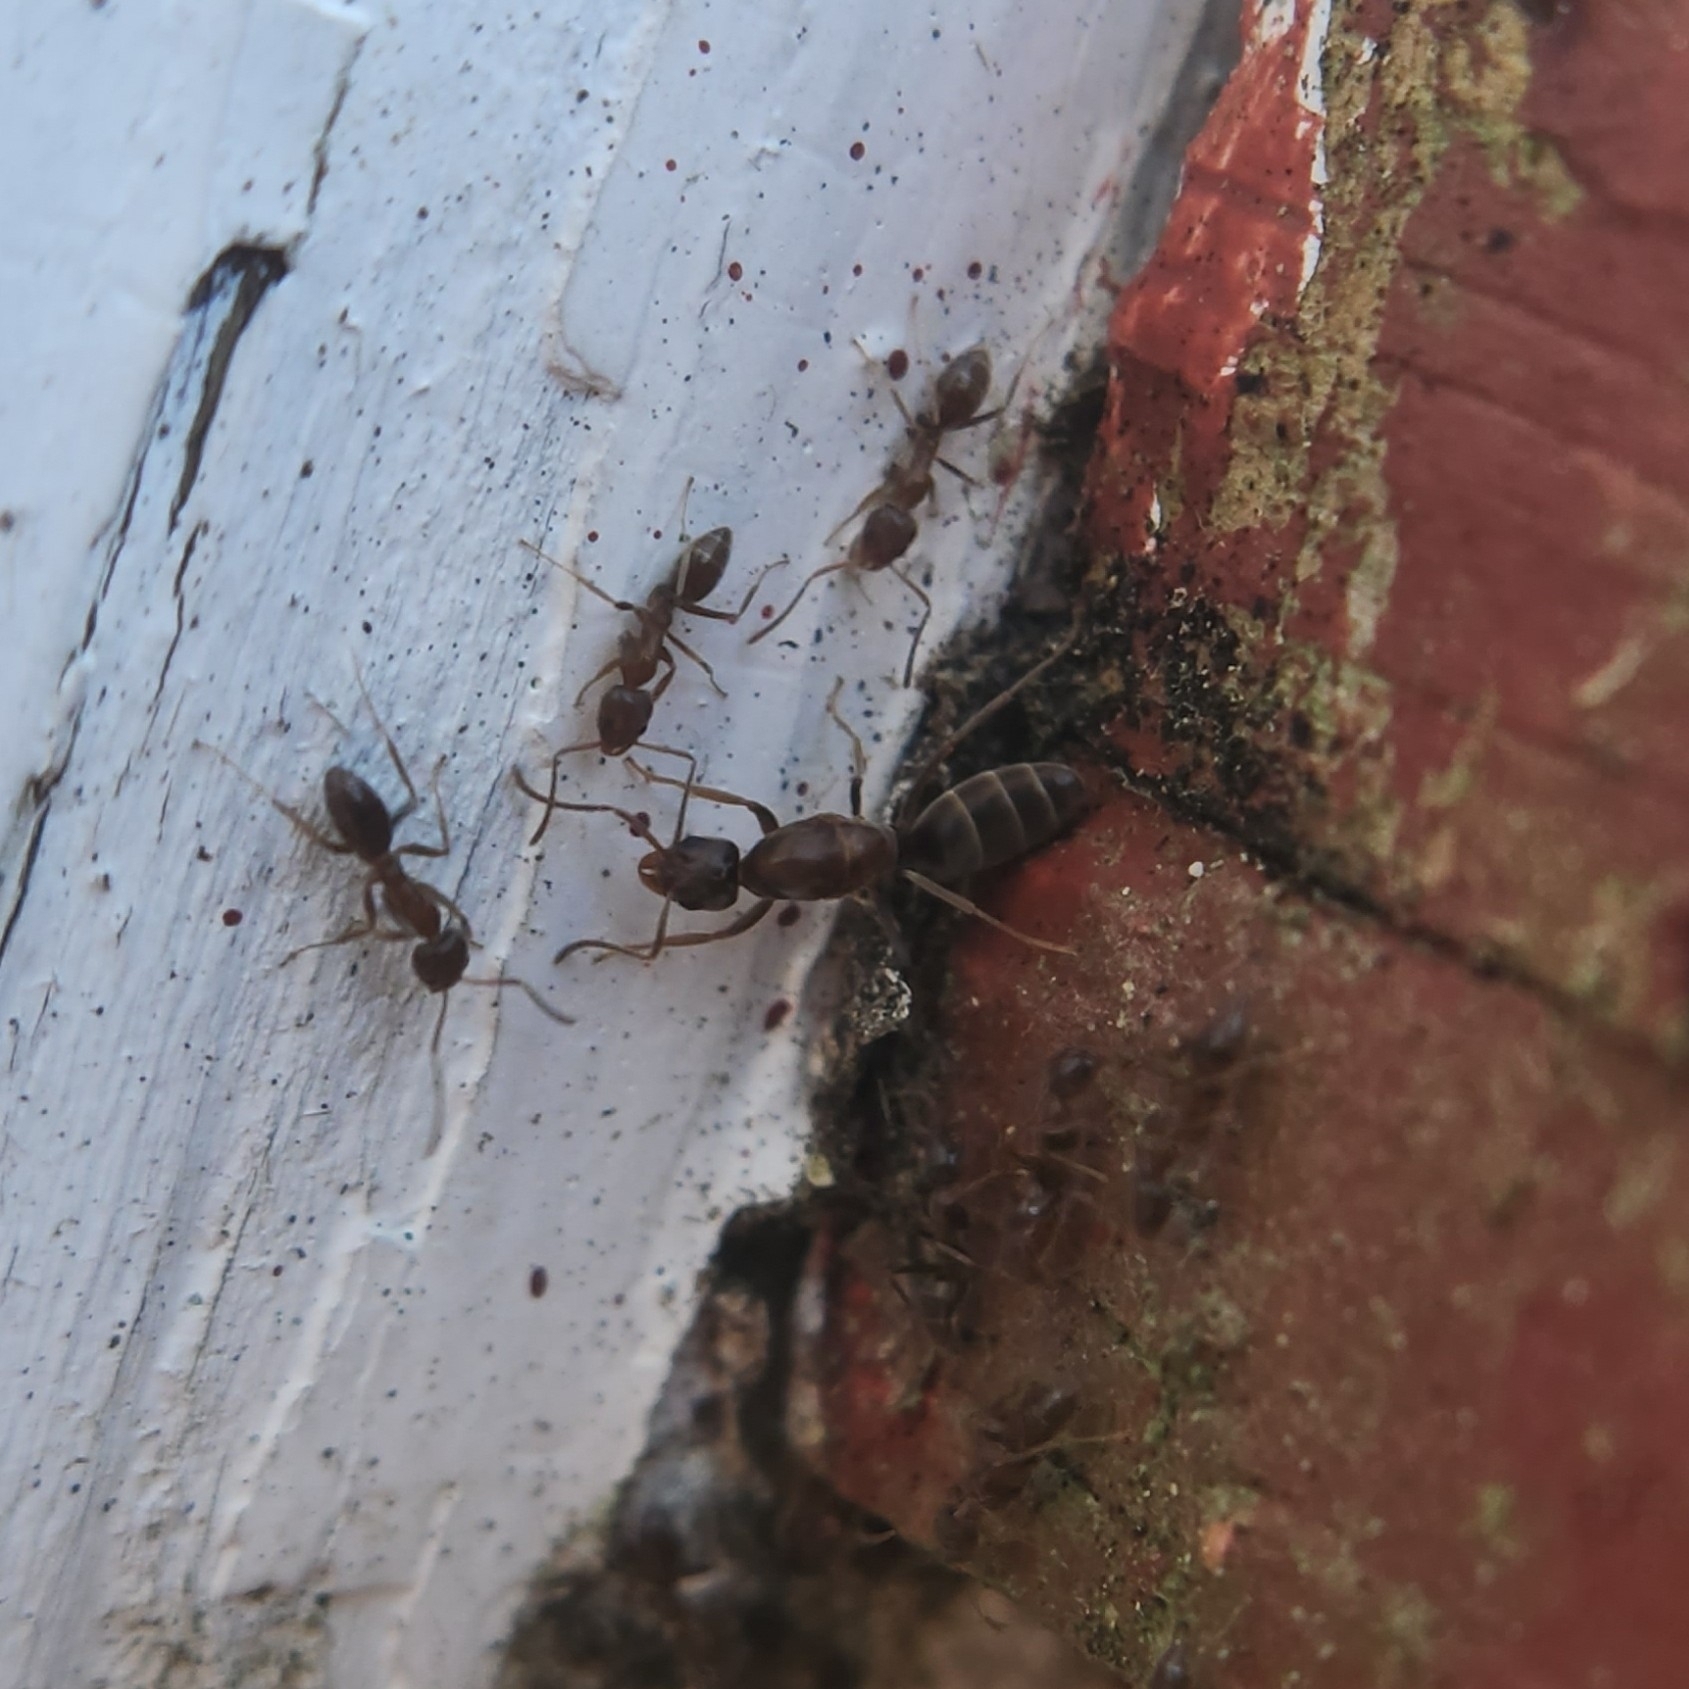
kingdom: Animalia
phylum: Arthropoda
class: Insecta
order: Hymenoptera
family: Formicidae
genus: Linepithema
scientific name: Linepithema humile
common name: Argentine ant
